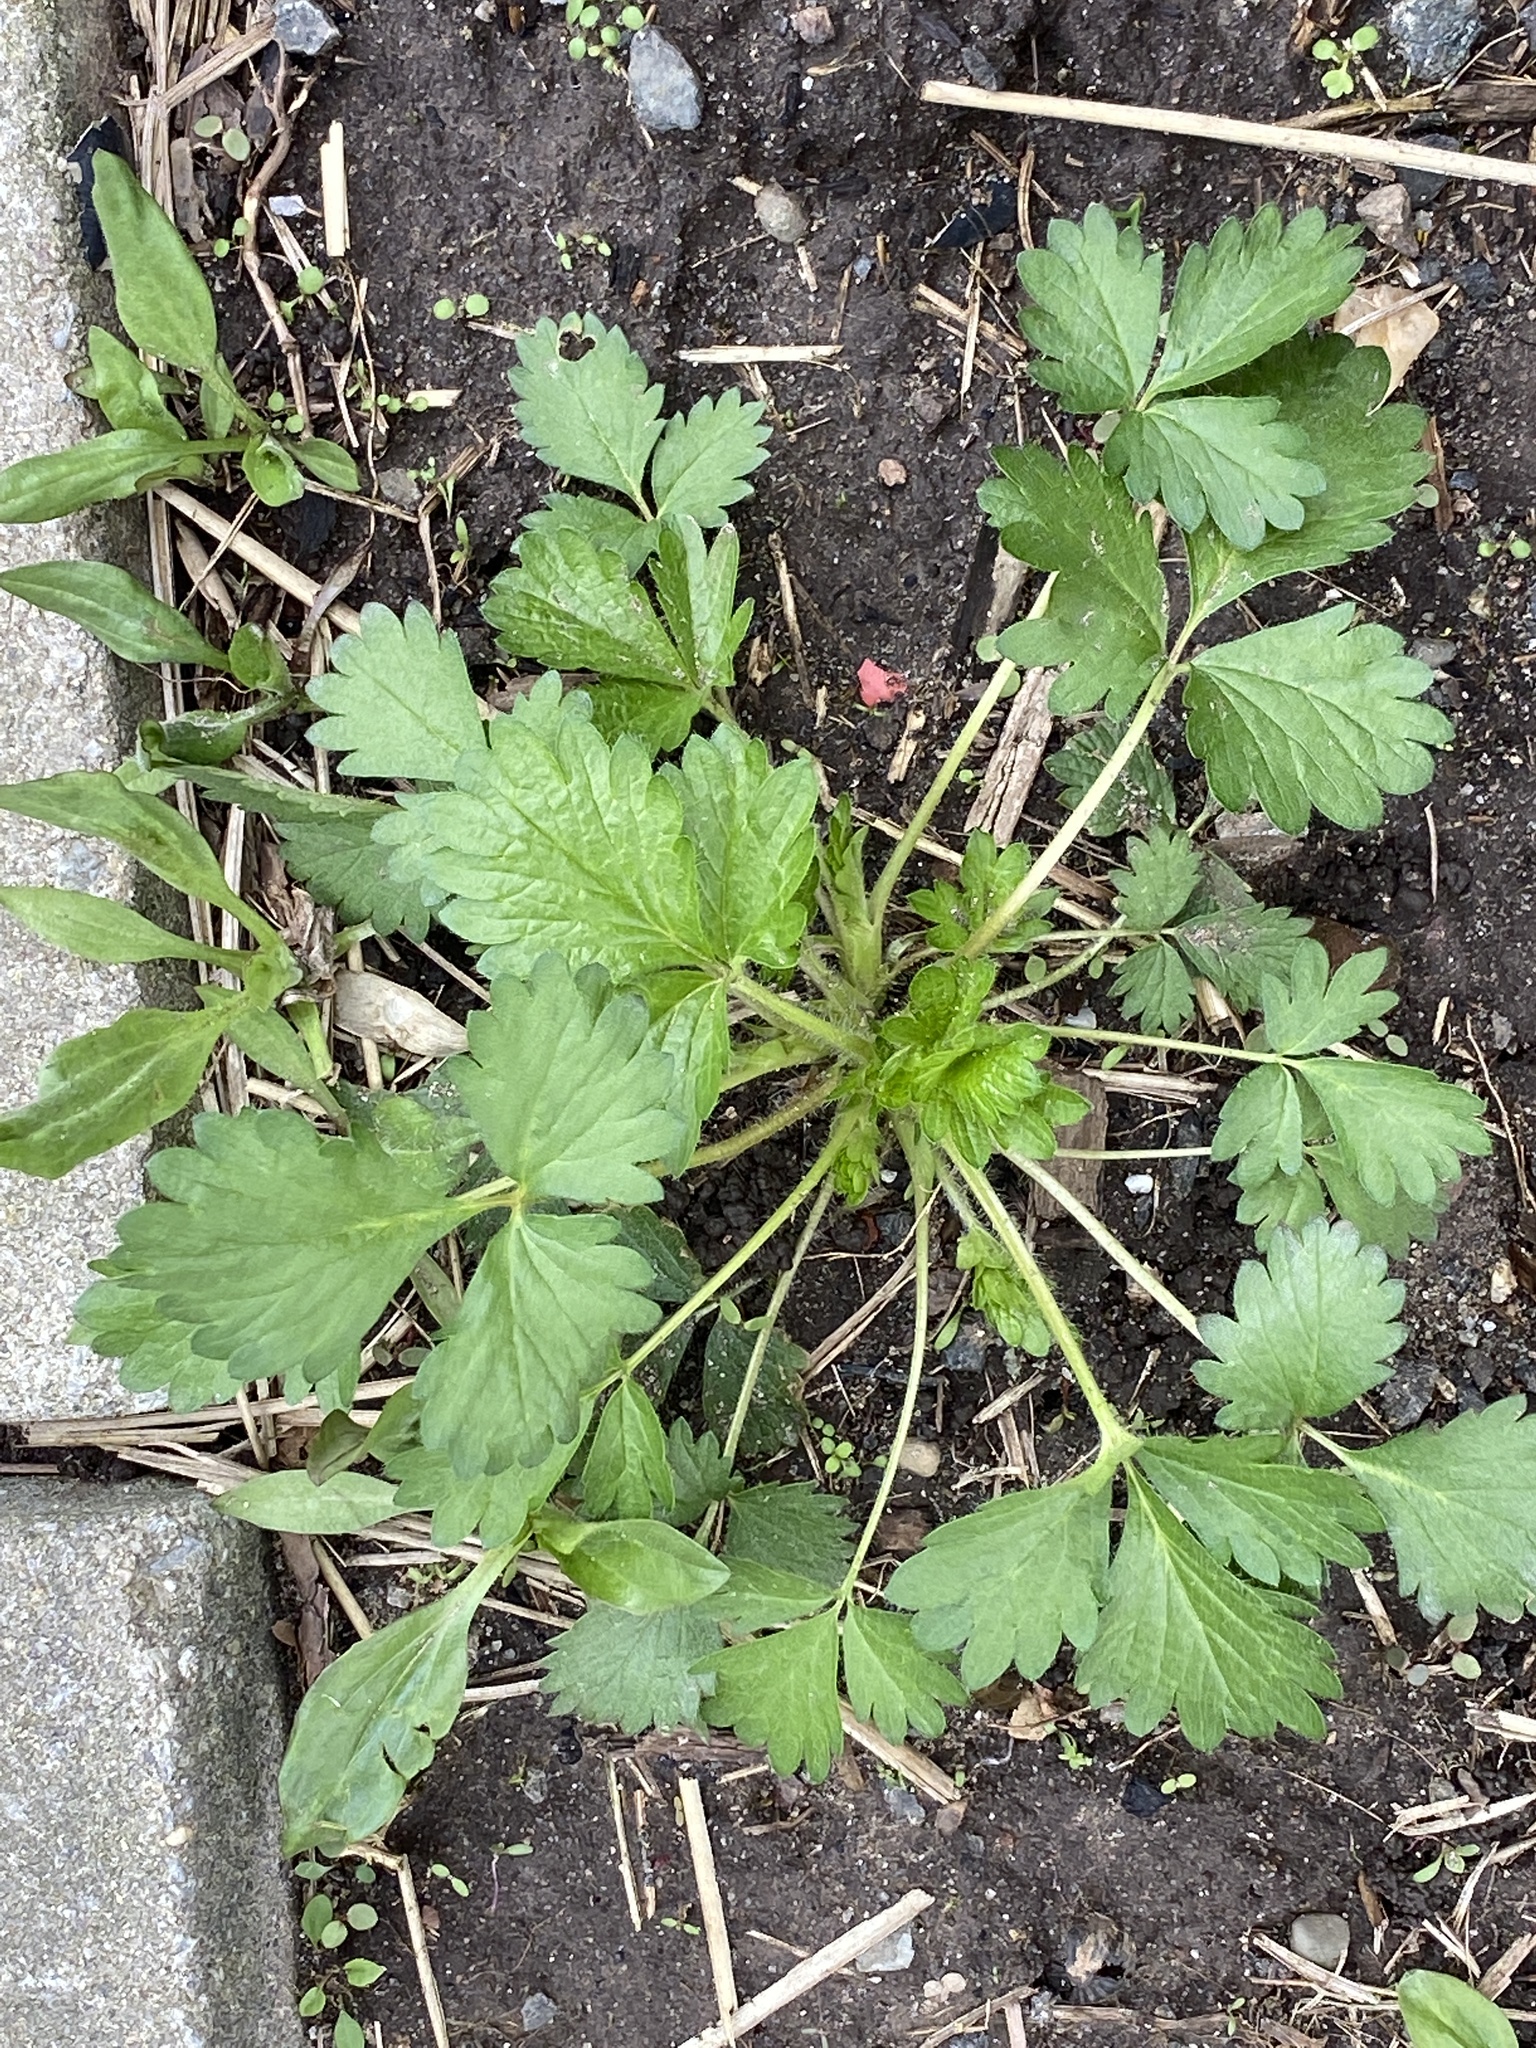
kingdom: Plantae
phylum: Tracheophyta
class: Magnoliopsida
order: Rosales
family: Rosaceae
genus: Potentilla
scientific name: Potentilla norvegica
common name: Ternate-leaved cinquefoil
